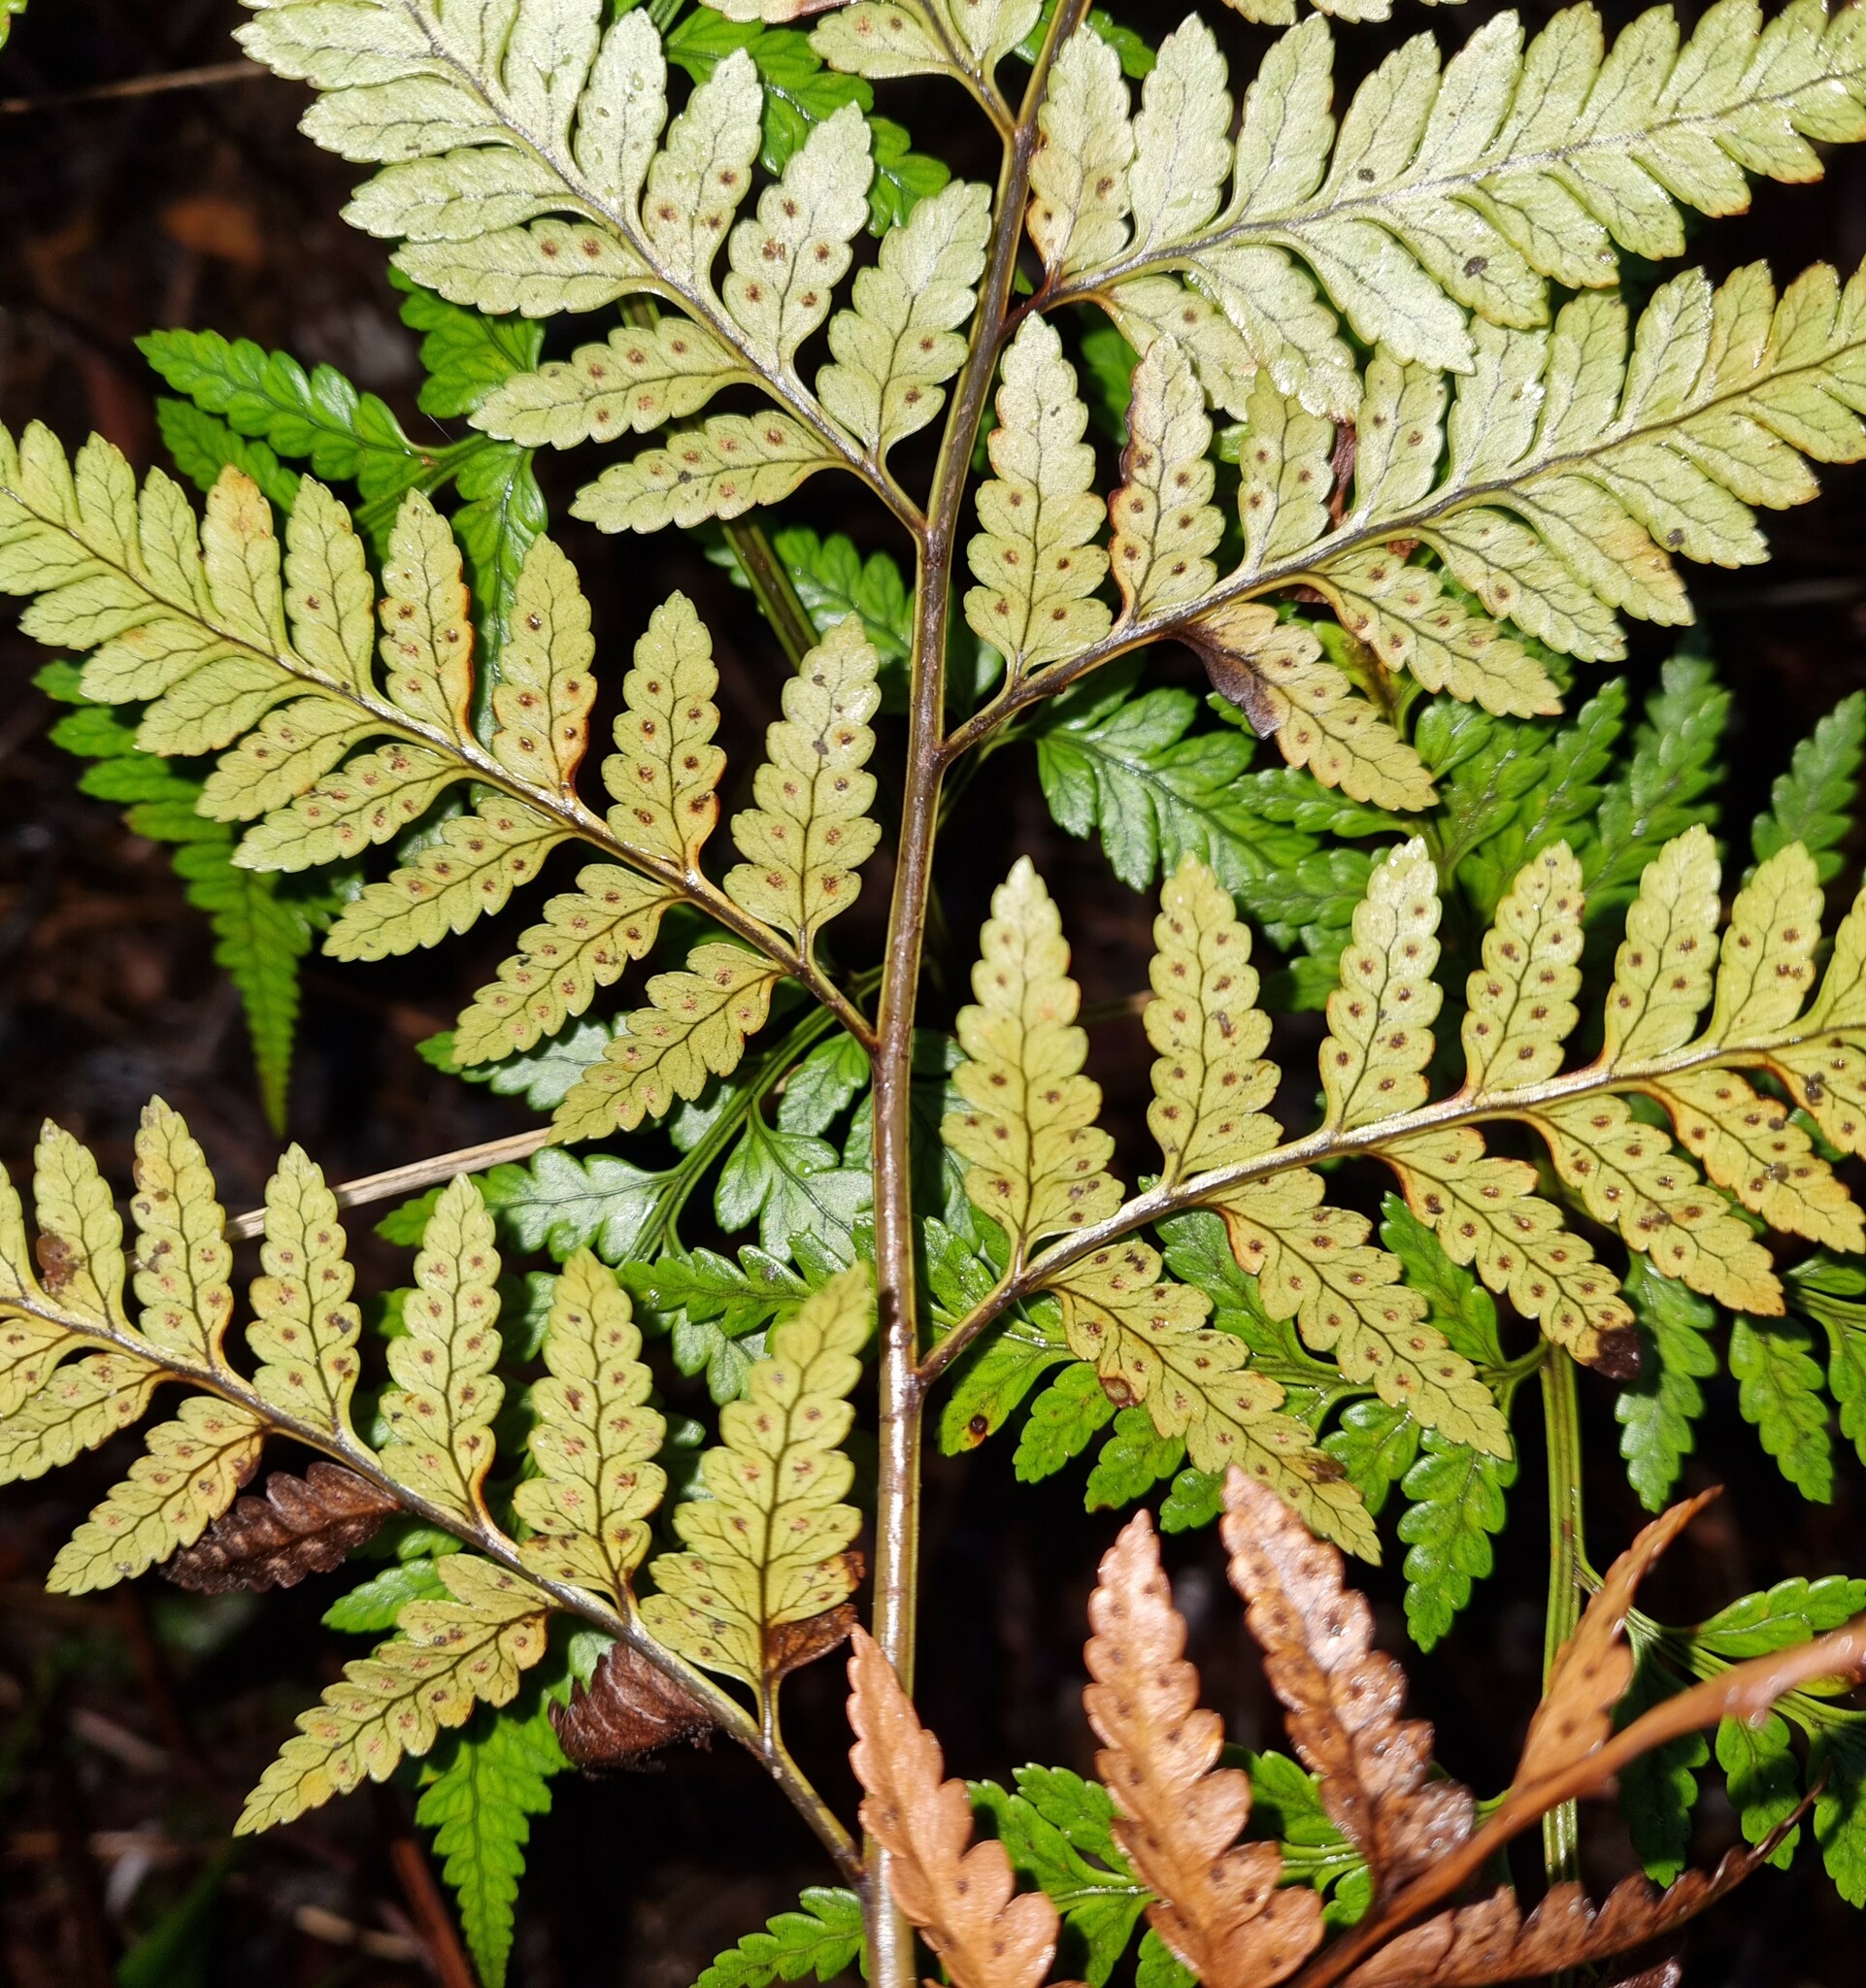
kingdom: Plantae
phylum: Tracheophyta
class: Polypodiopsida
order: Polypodiales
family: Dryopteridaceae
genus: Rumohra
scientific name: Rumohra adiantiformis
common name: Leather fern
